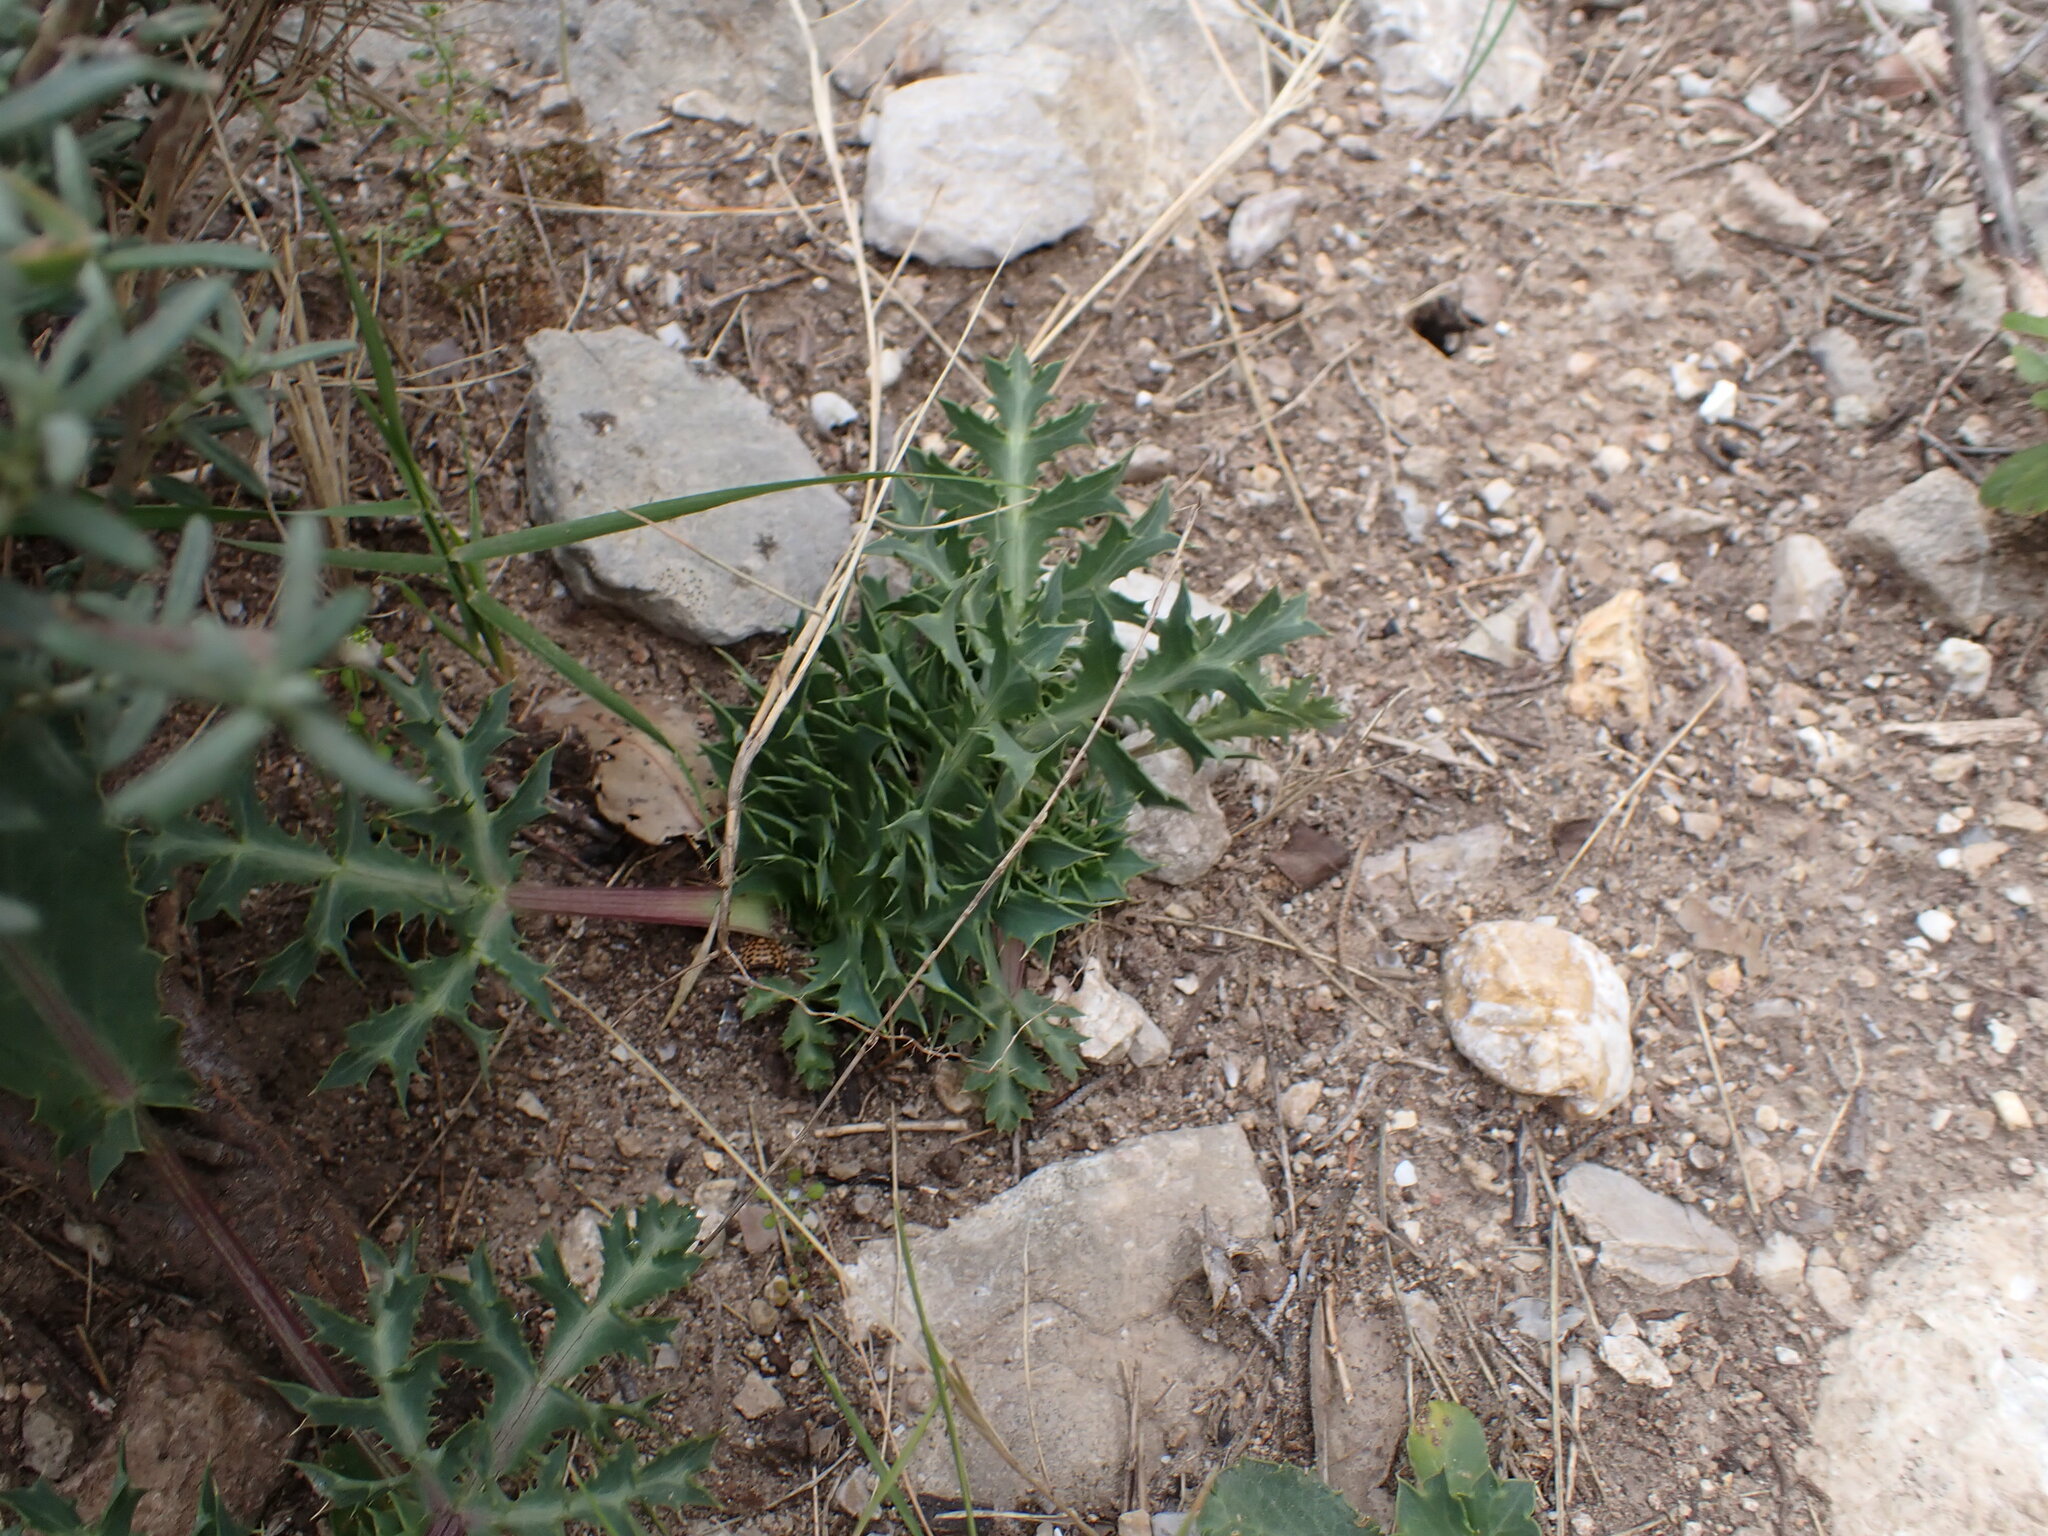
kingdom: Plantae
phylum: Tracheophyta
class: Magnoliopsida
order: Apiales
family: Apiaceae
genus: Eryngium
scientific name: Eryngium campestre
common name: Field eryngo
